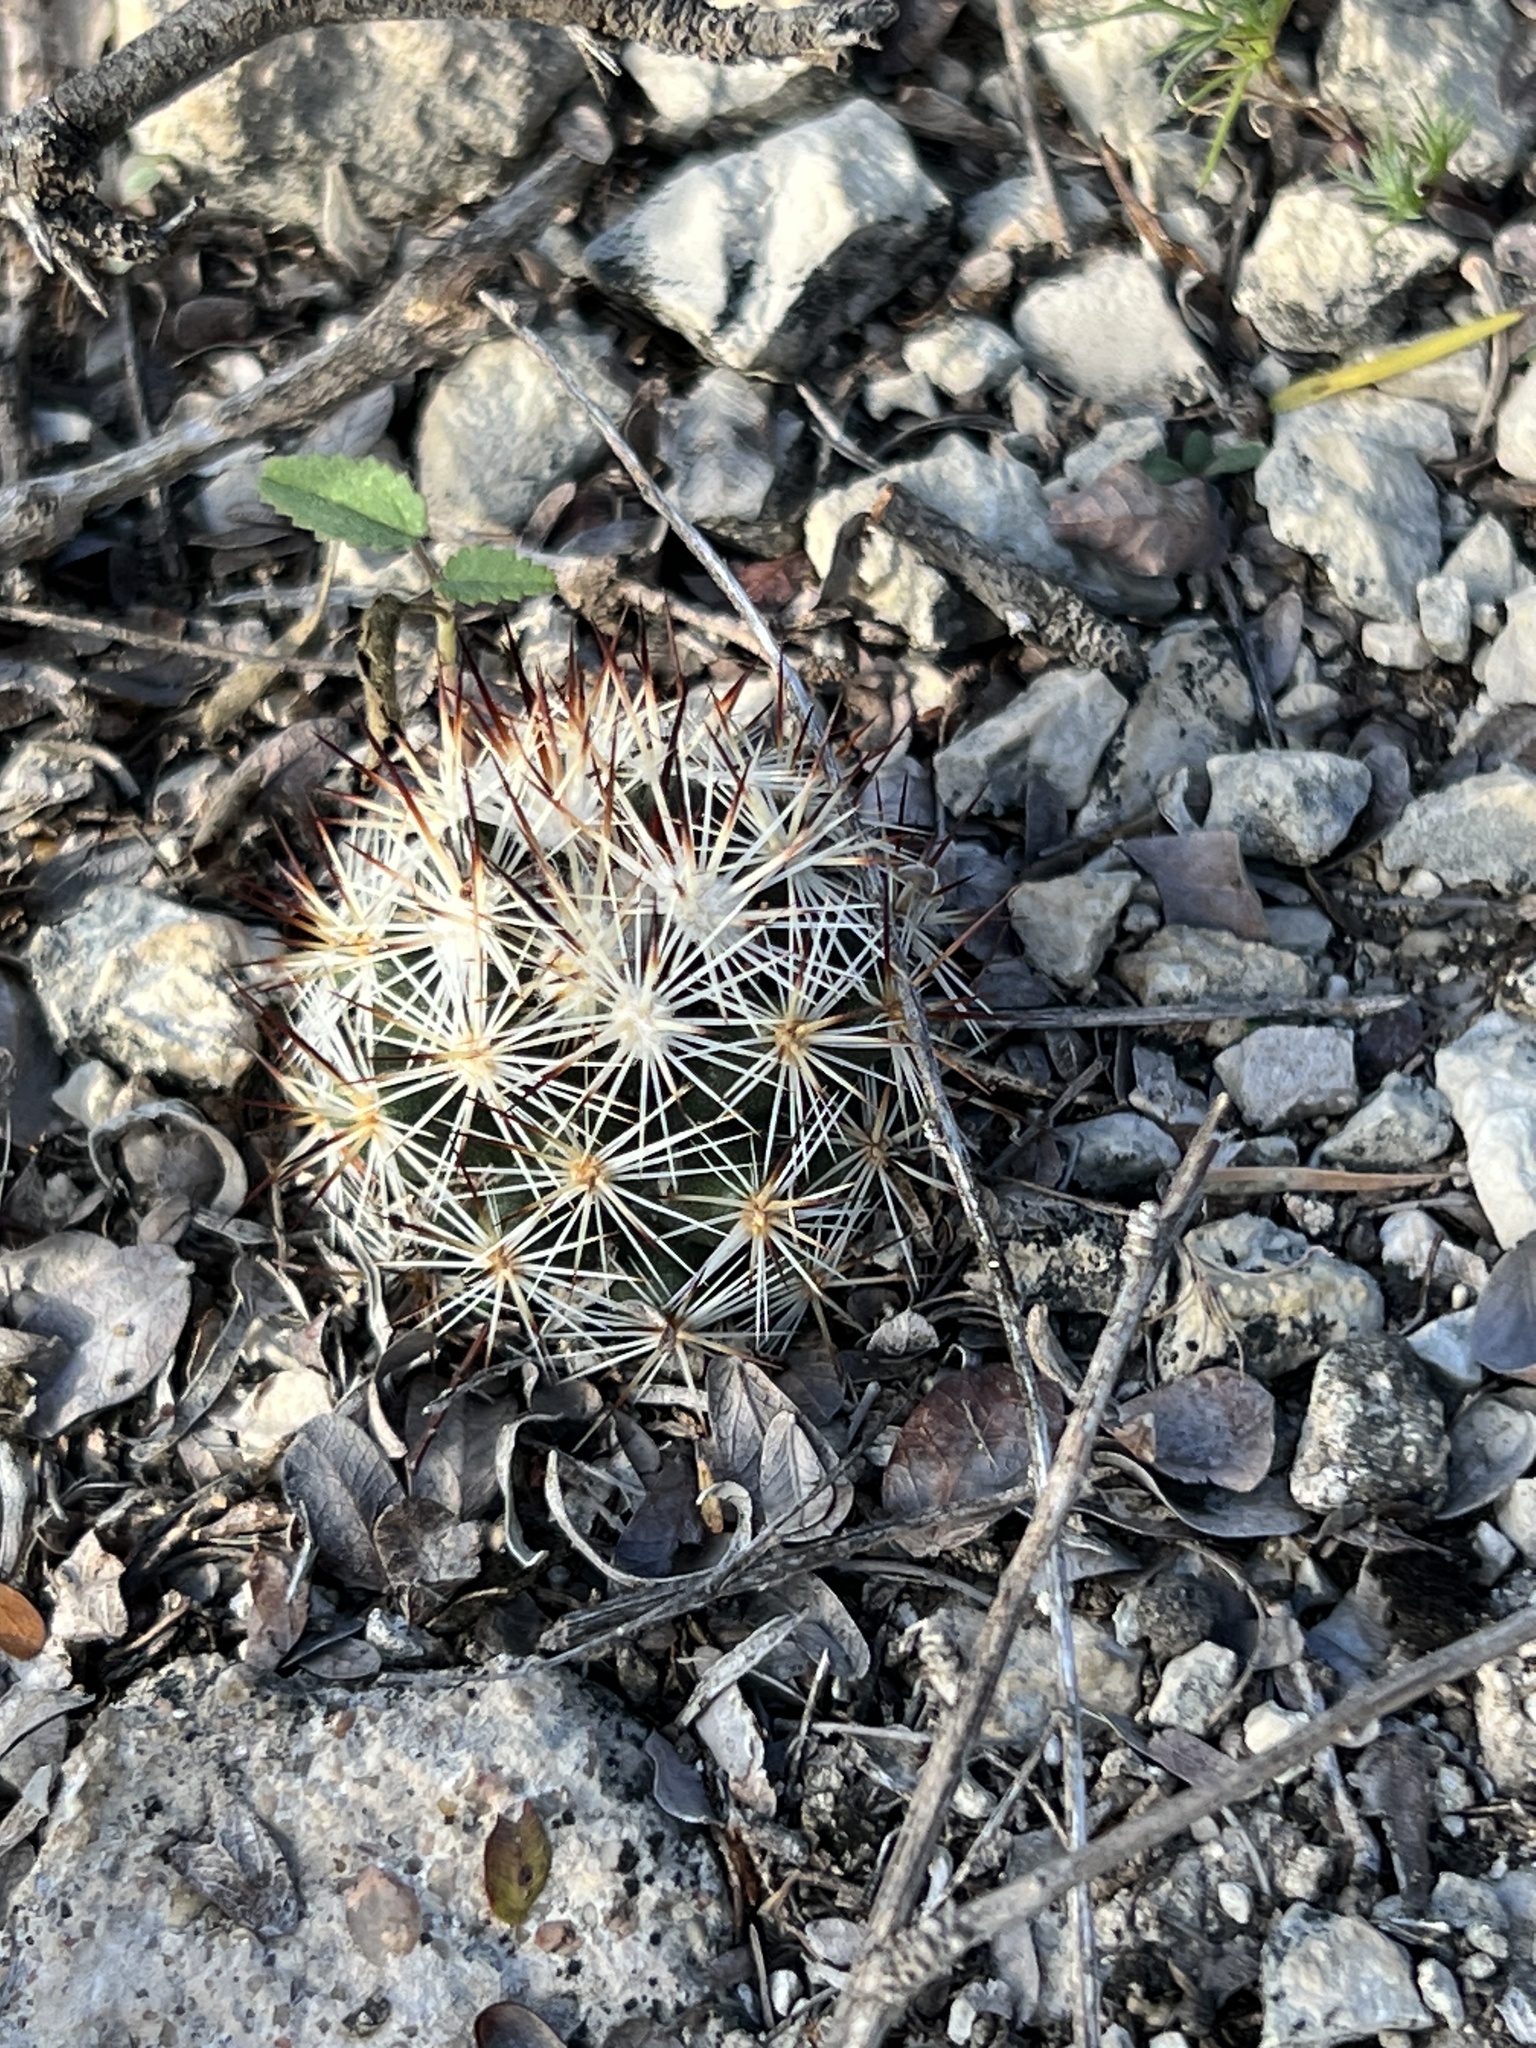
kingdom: Plantae
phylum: Tracheophyta
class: Magnoliopsida
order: Caryophyllales
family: Cactaceae
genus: Pelecyphora
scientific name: Pelecyphora emskoetteriana
